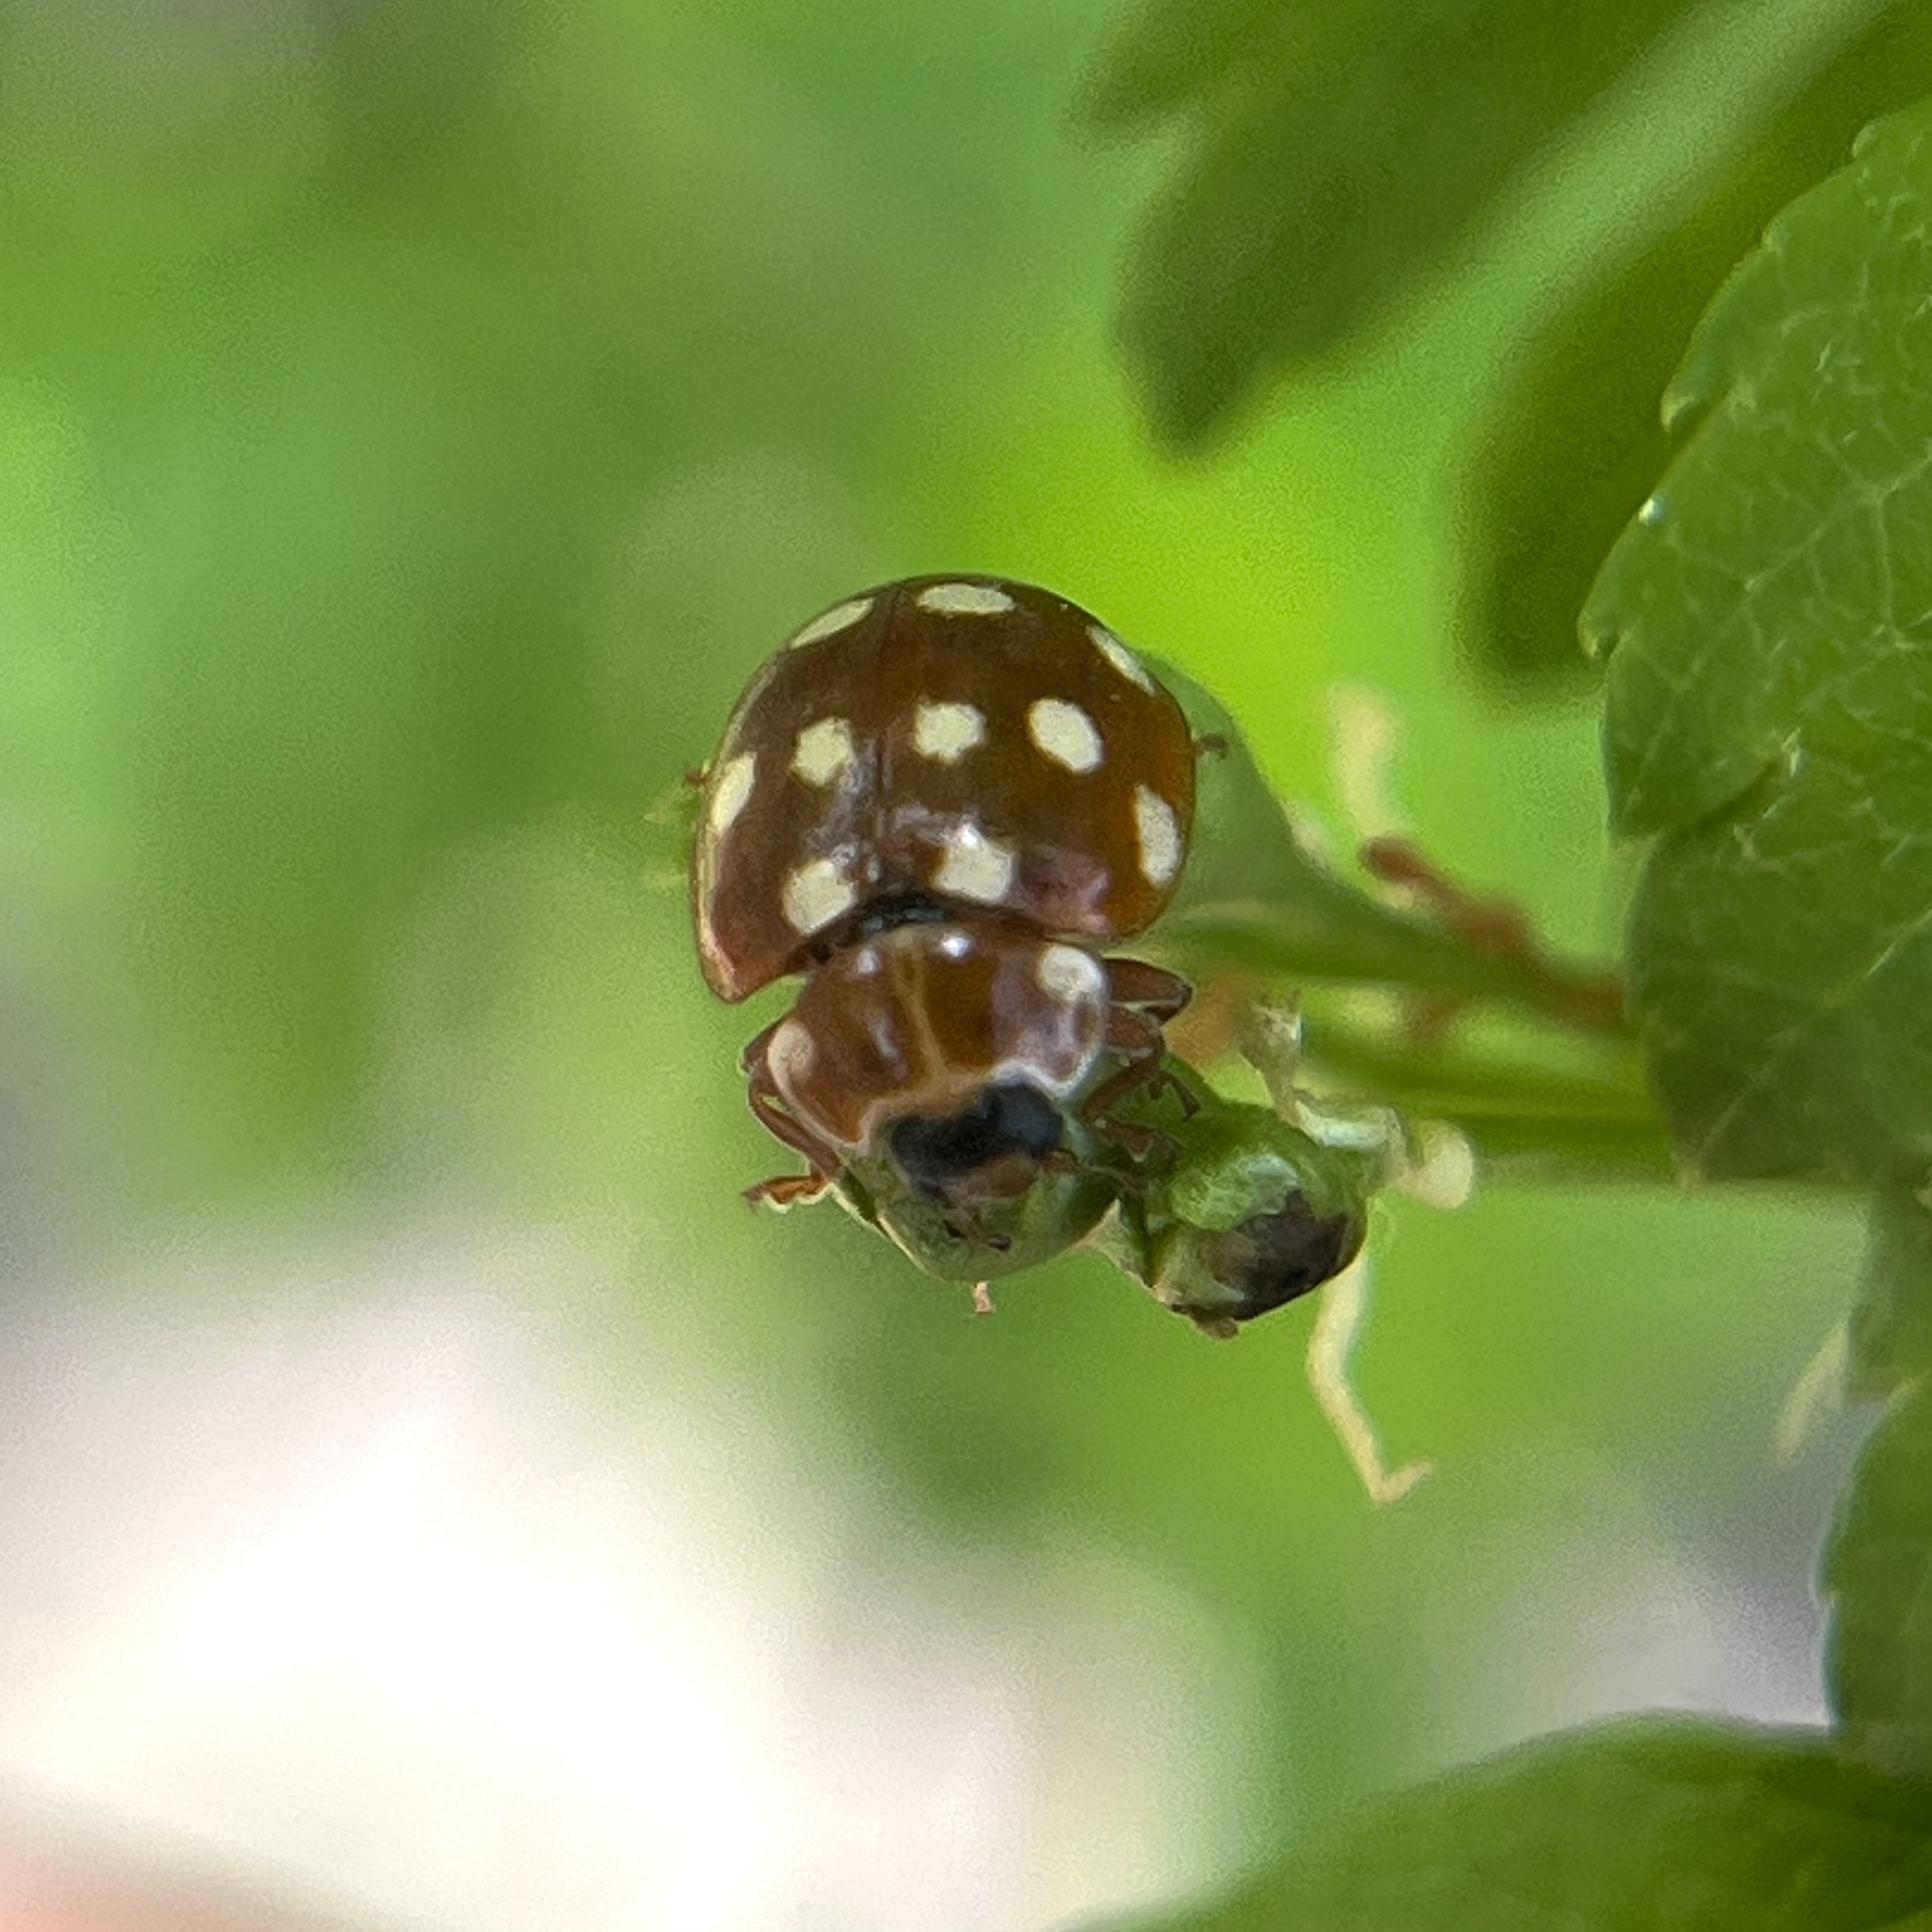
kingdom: Animalia
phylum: Arthropoda
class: Insecta
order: Coleoptera
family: Coccinellidae
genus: Calvia
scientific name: Calvia quatuordecimguttata
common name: Cream-spot ladybird
